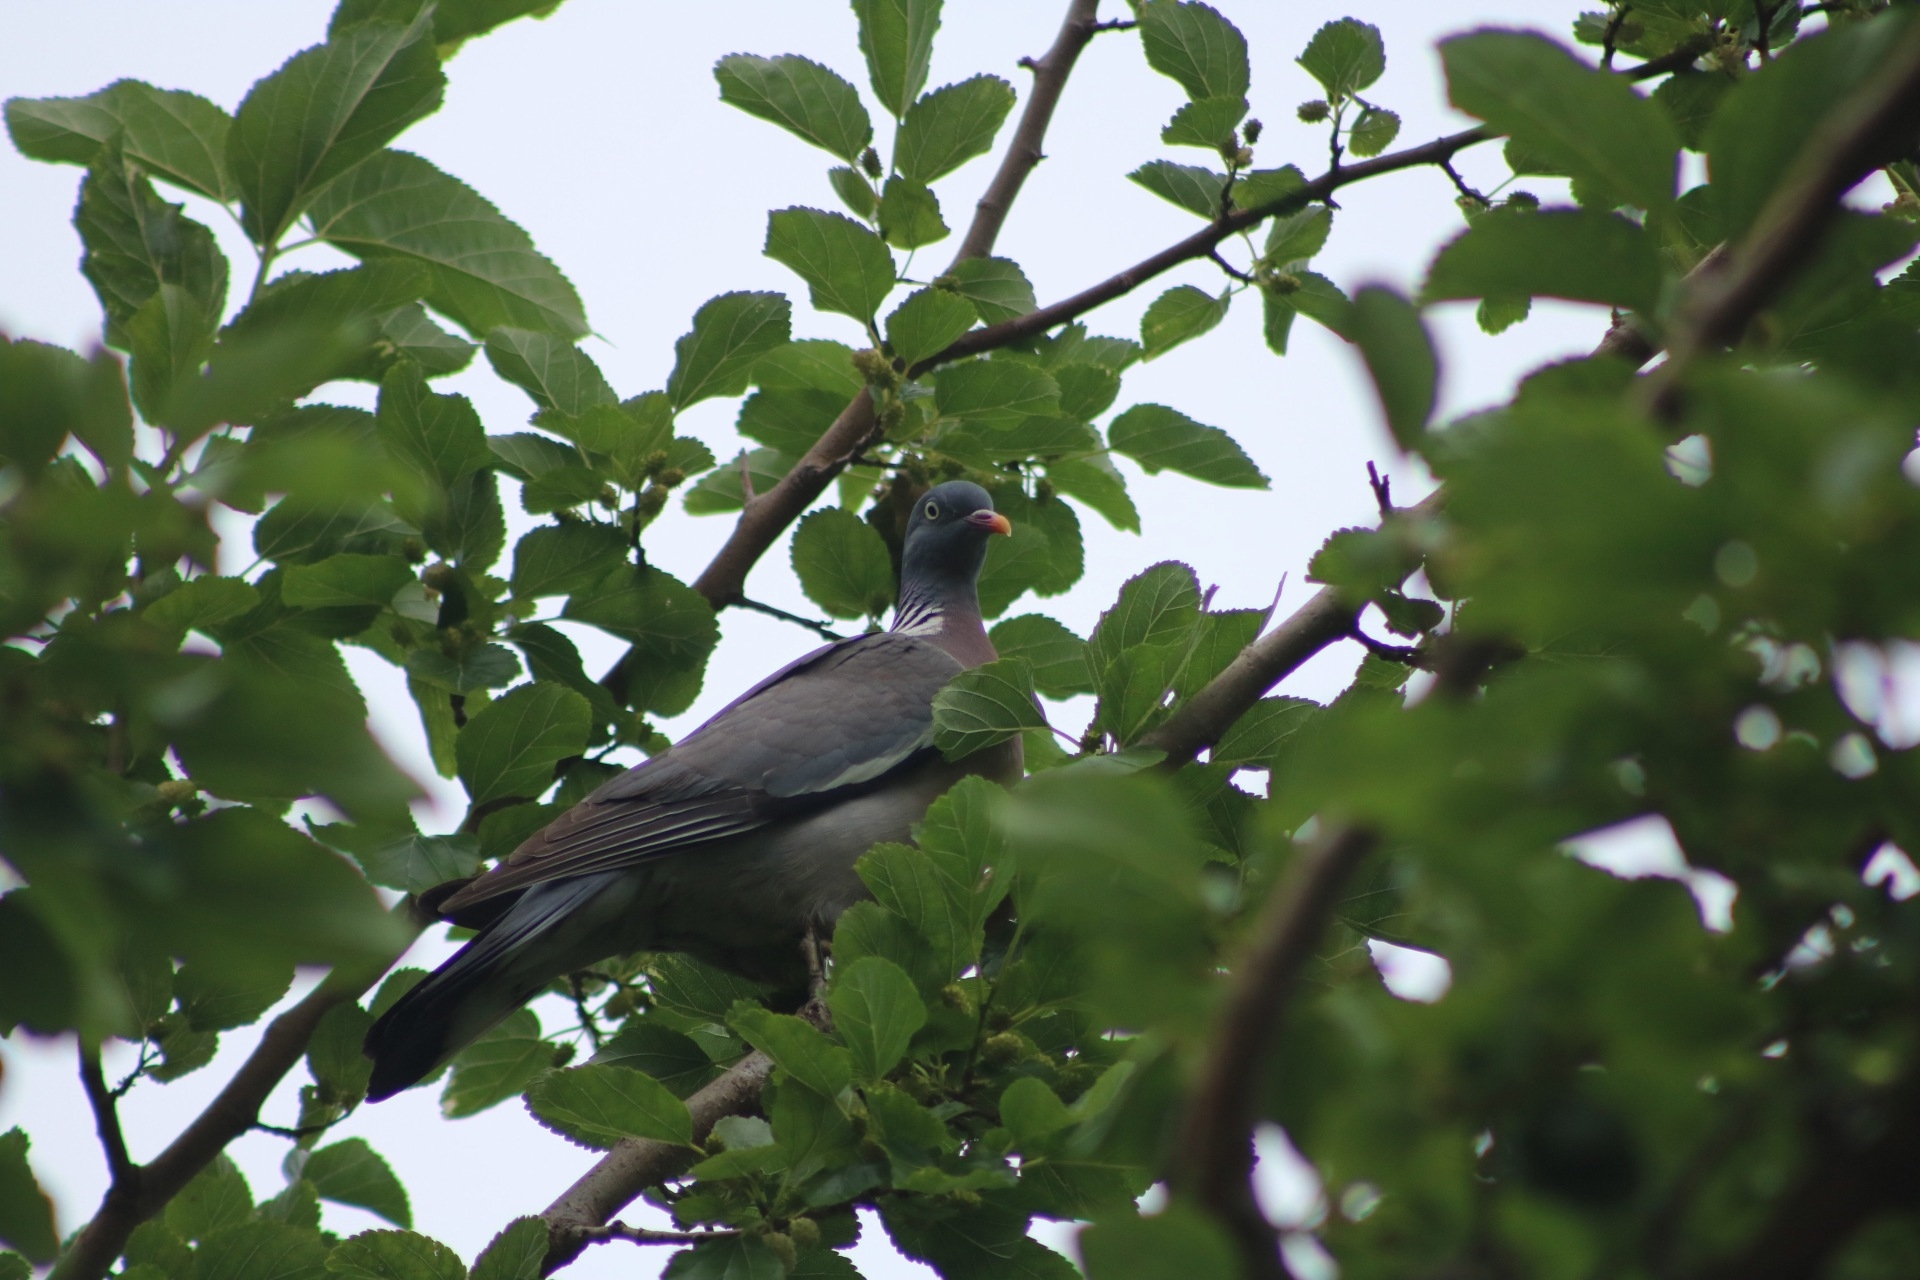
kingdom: Animalia
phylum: Chordata
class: Aves
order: Columbiformes
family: Columbidae
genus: Columba
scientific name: Columba palumbus
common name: Common wood pigeon
